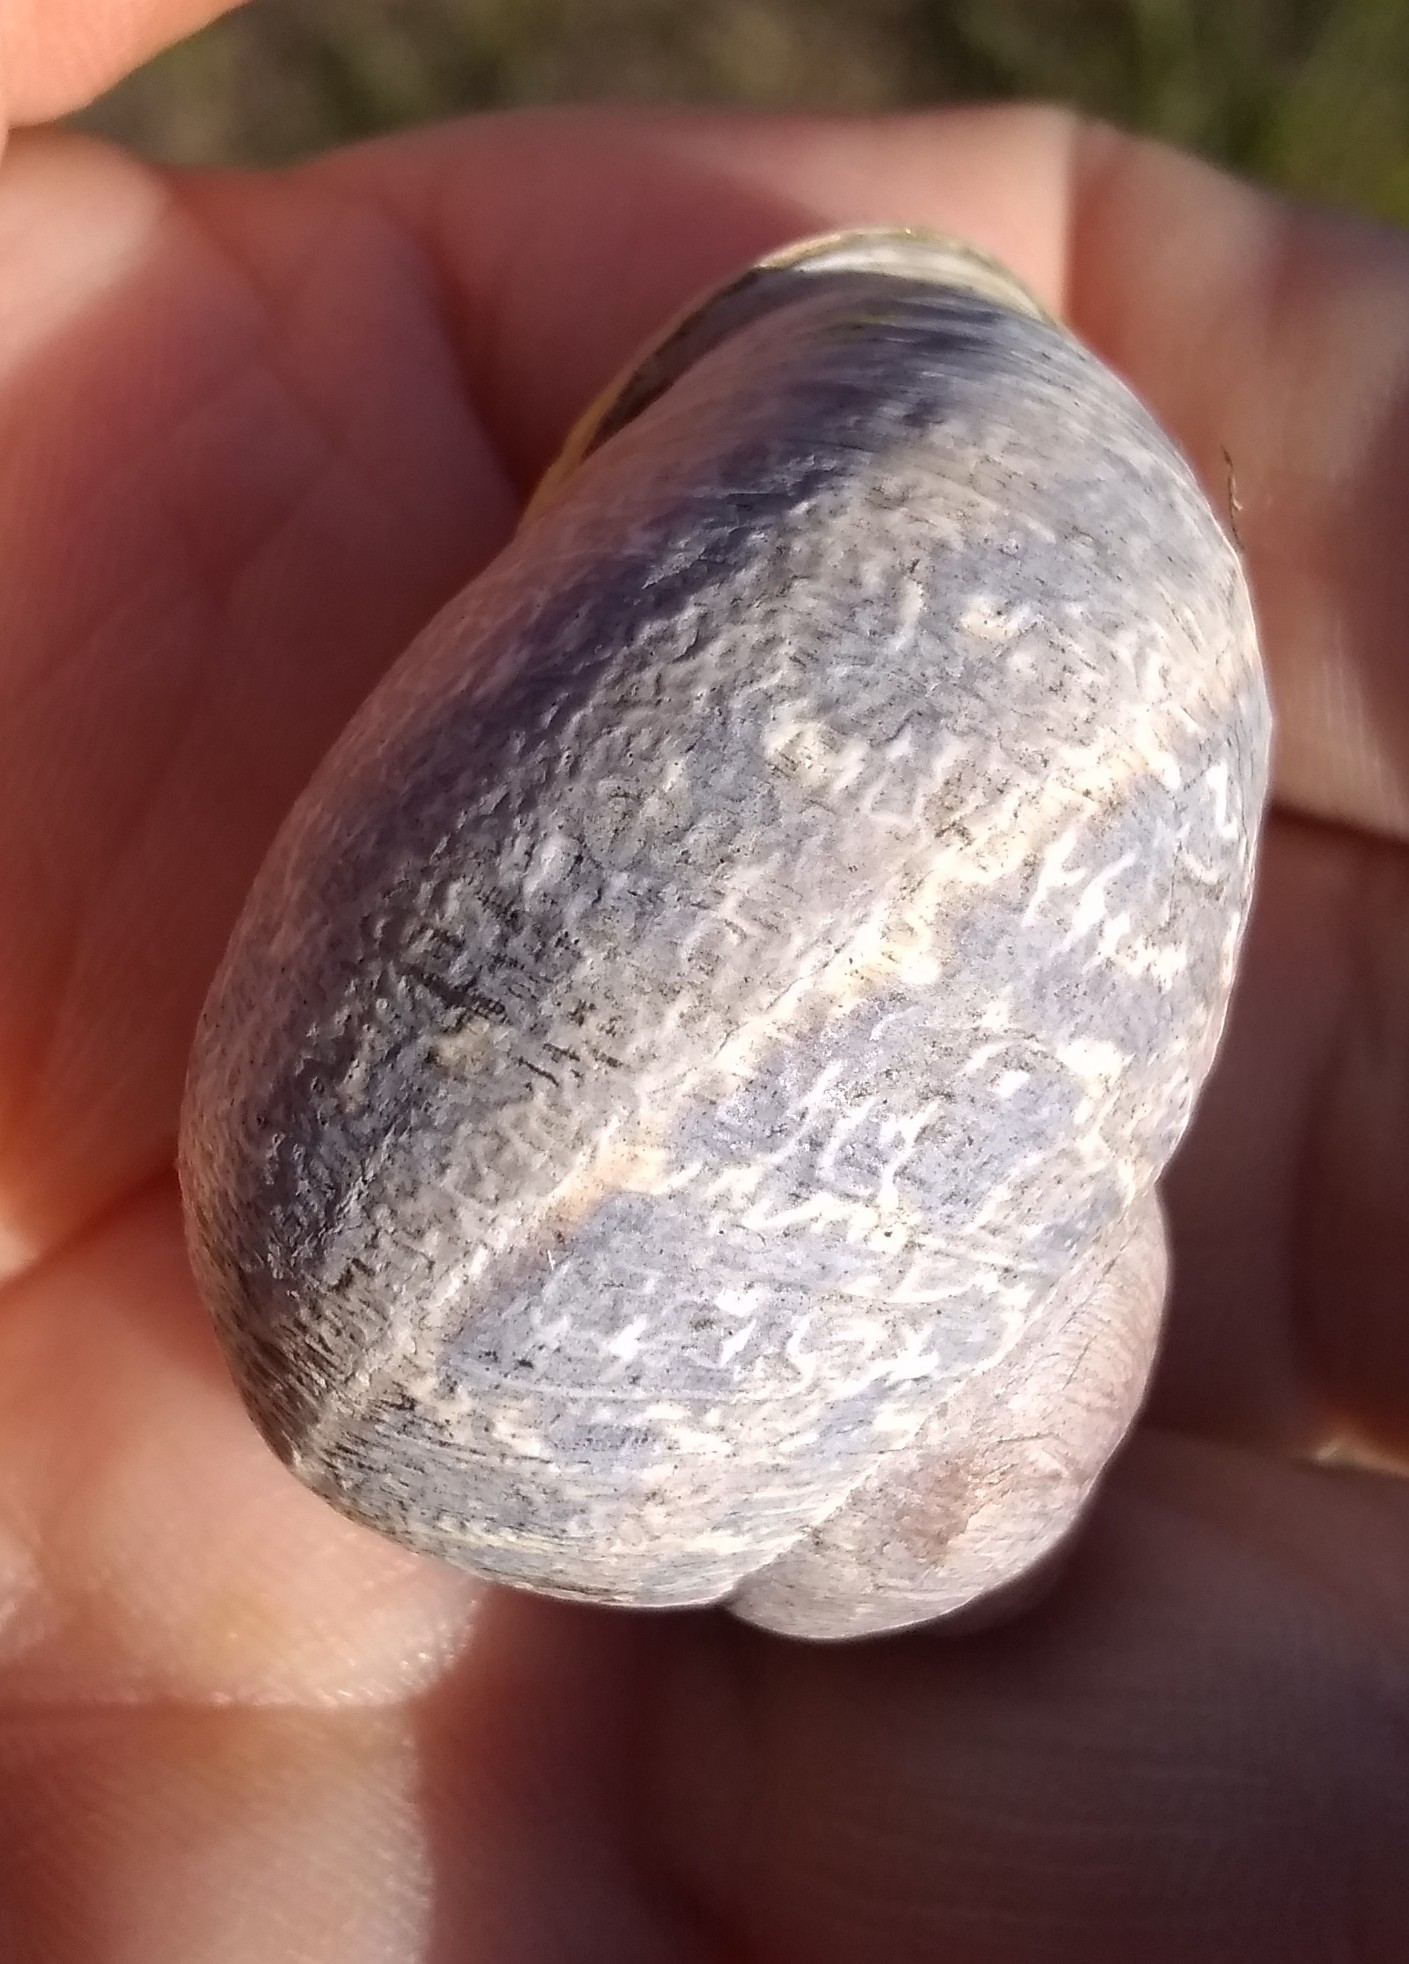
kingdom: Animalia
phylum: Mollusca
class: Gastropoda
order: Stylommatophora
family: Helicidae
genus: Cornu
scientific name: Cornu aspersum
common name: Brown garden snail
